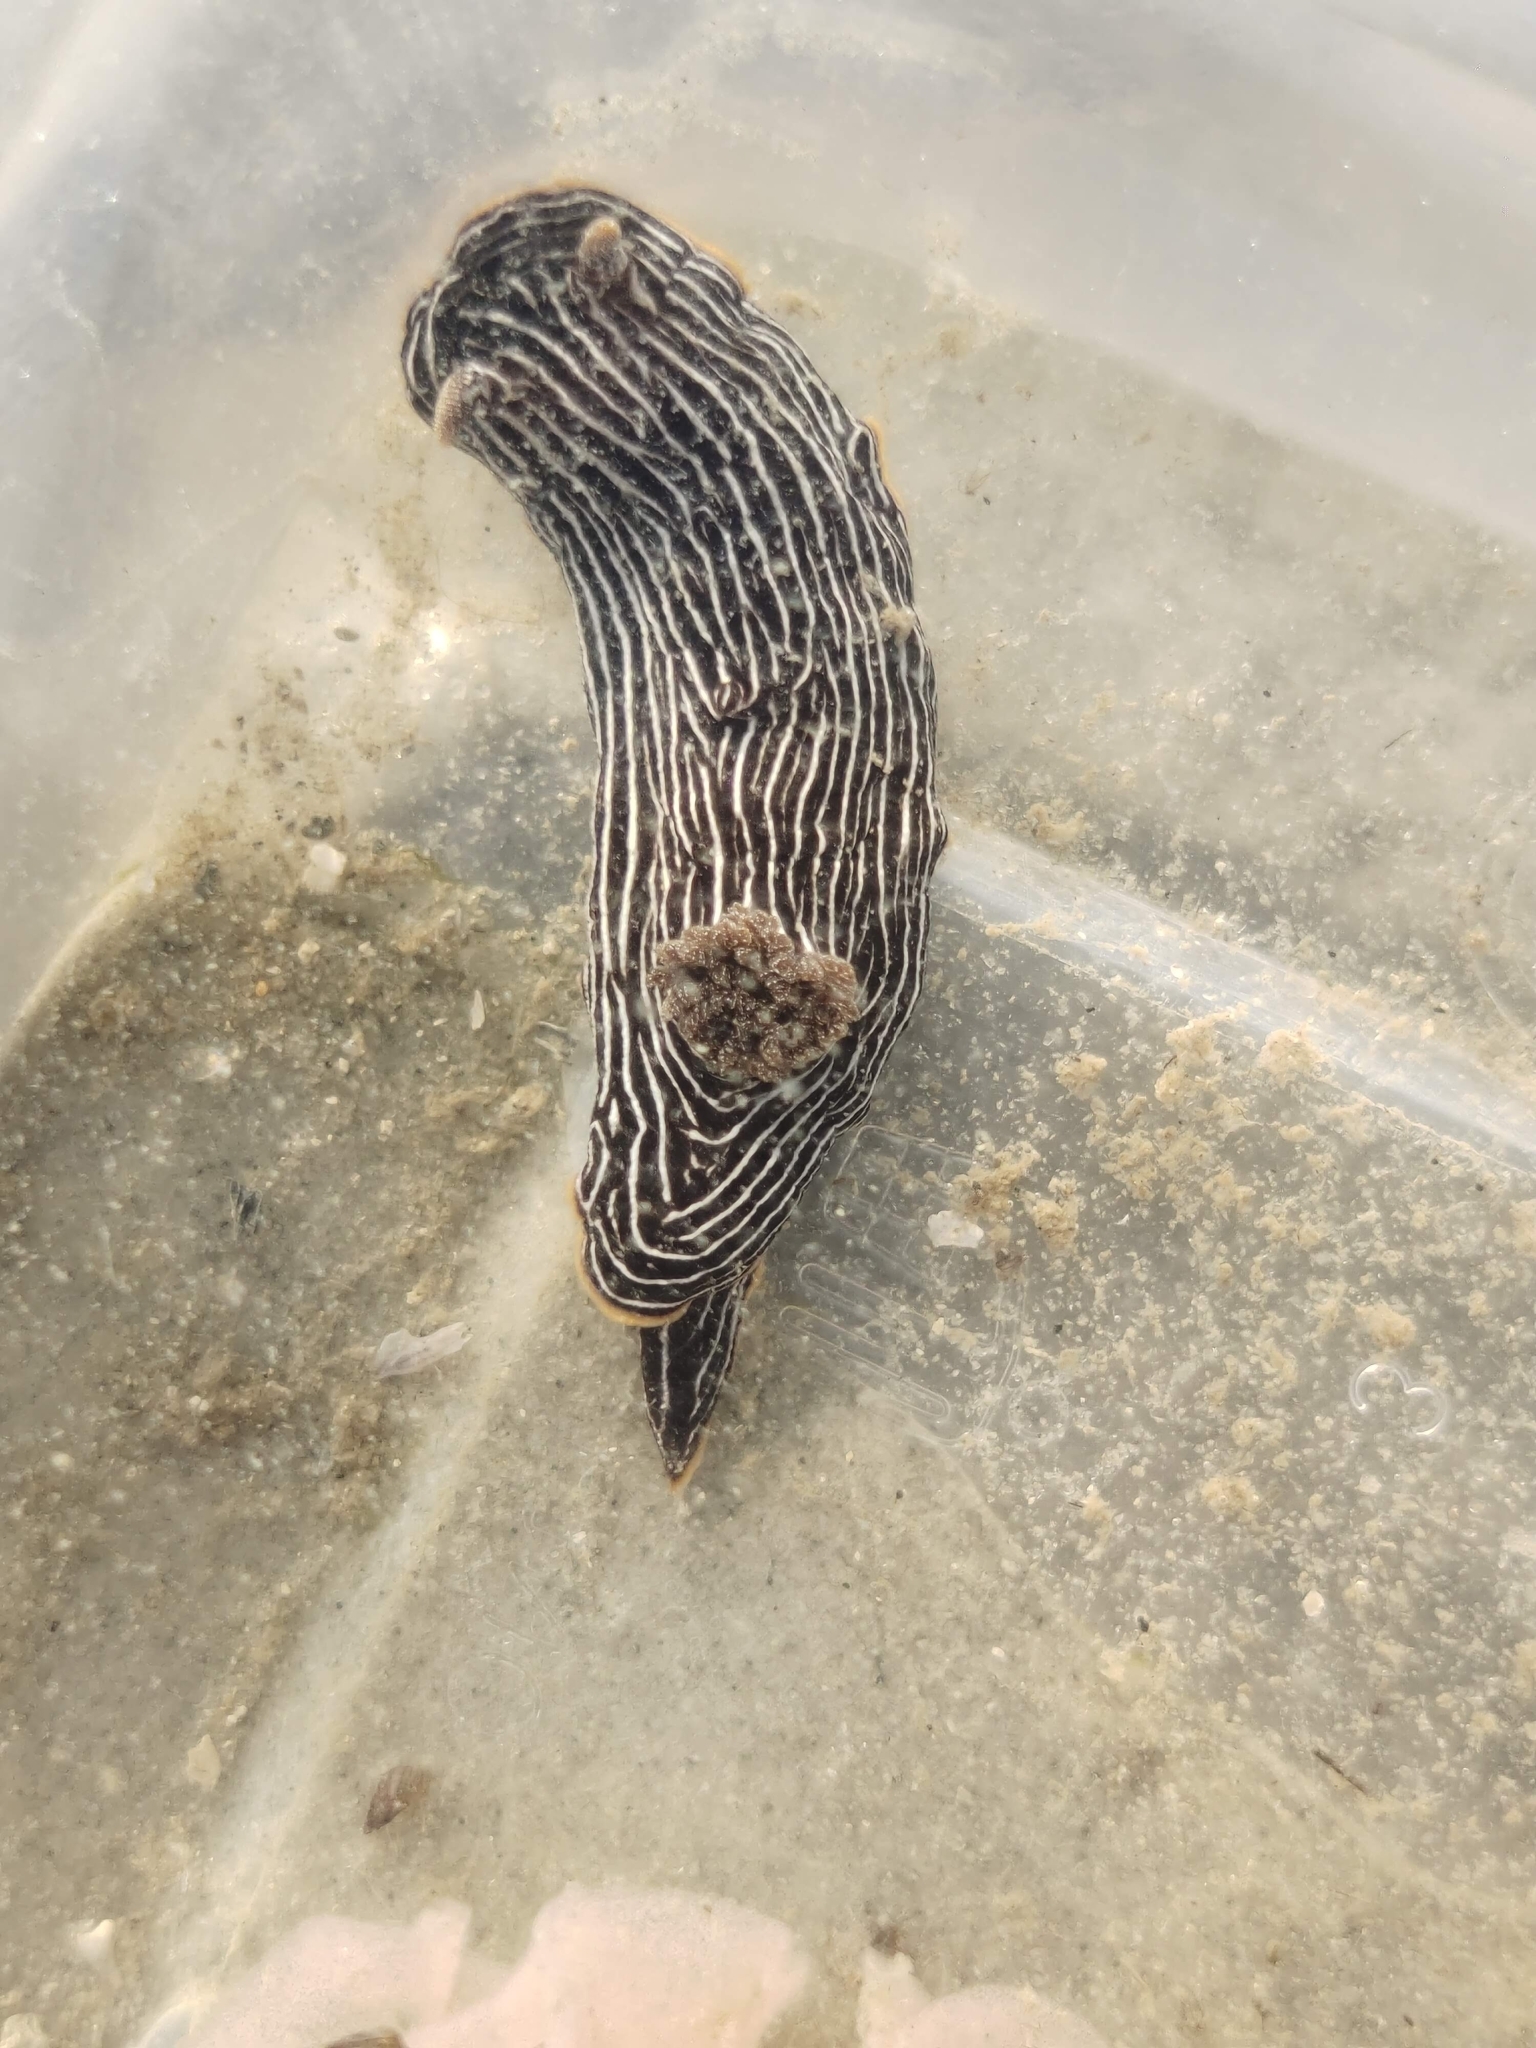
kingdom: Animalia
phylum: Mollusca
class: Gastropoda
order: Nudibranchia
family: Chromodorididae
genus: Chromodoris
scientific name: Chromodoris lineolata
